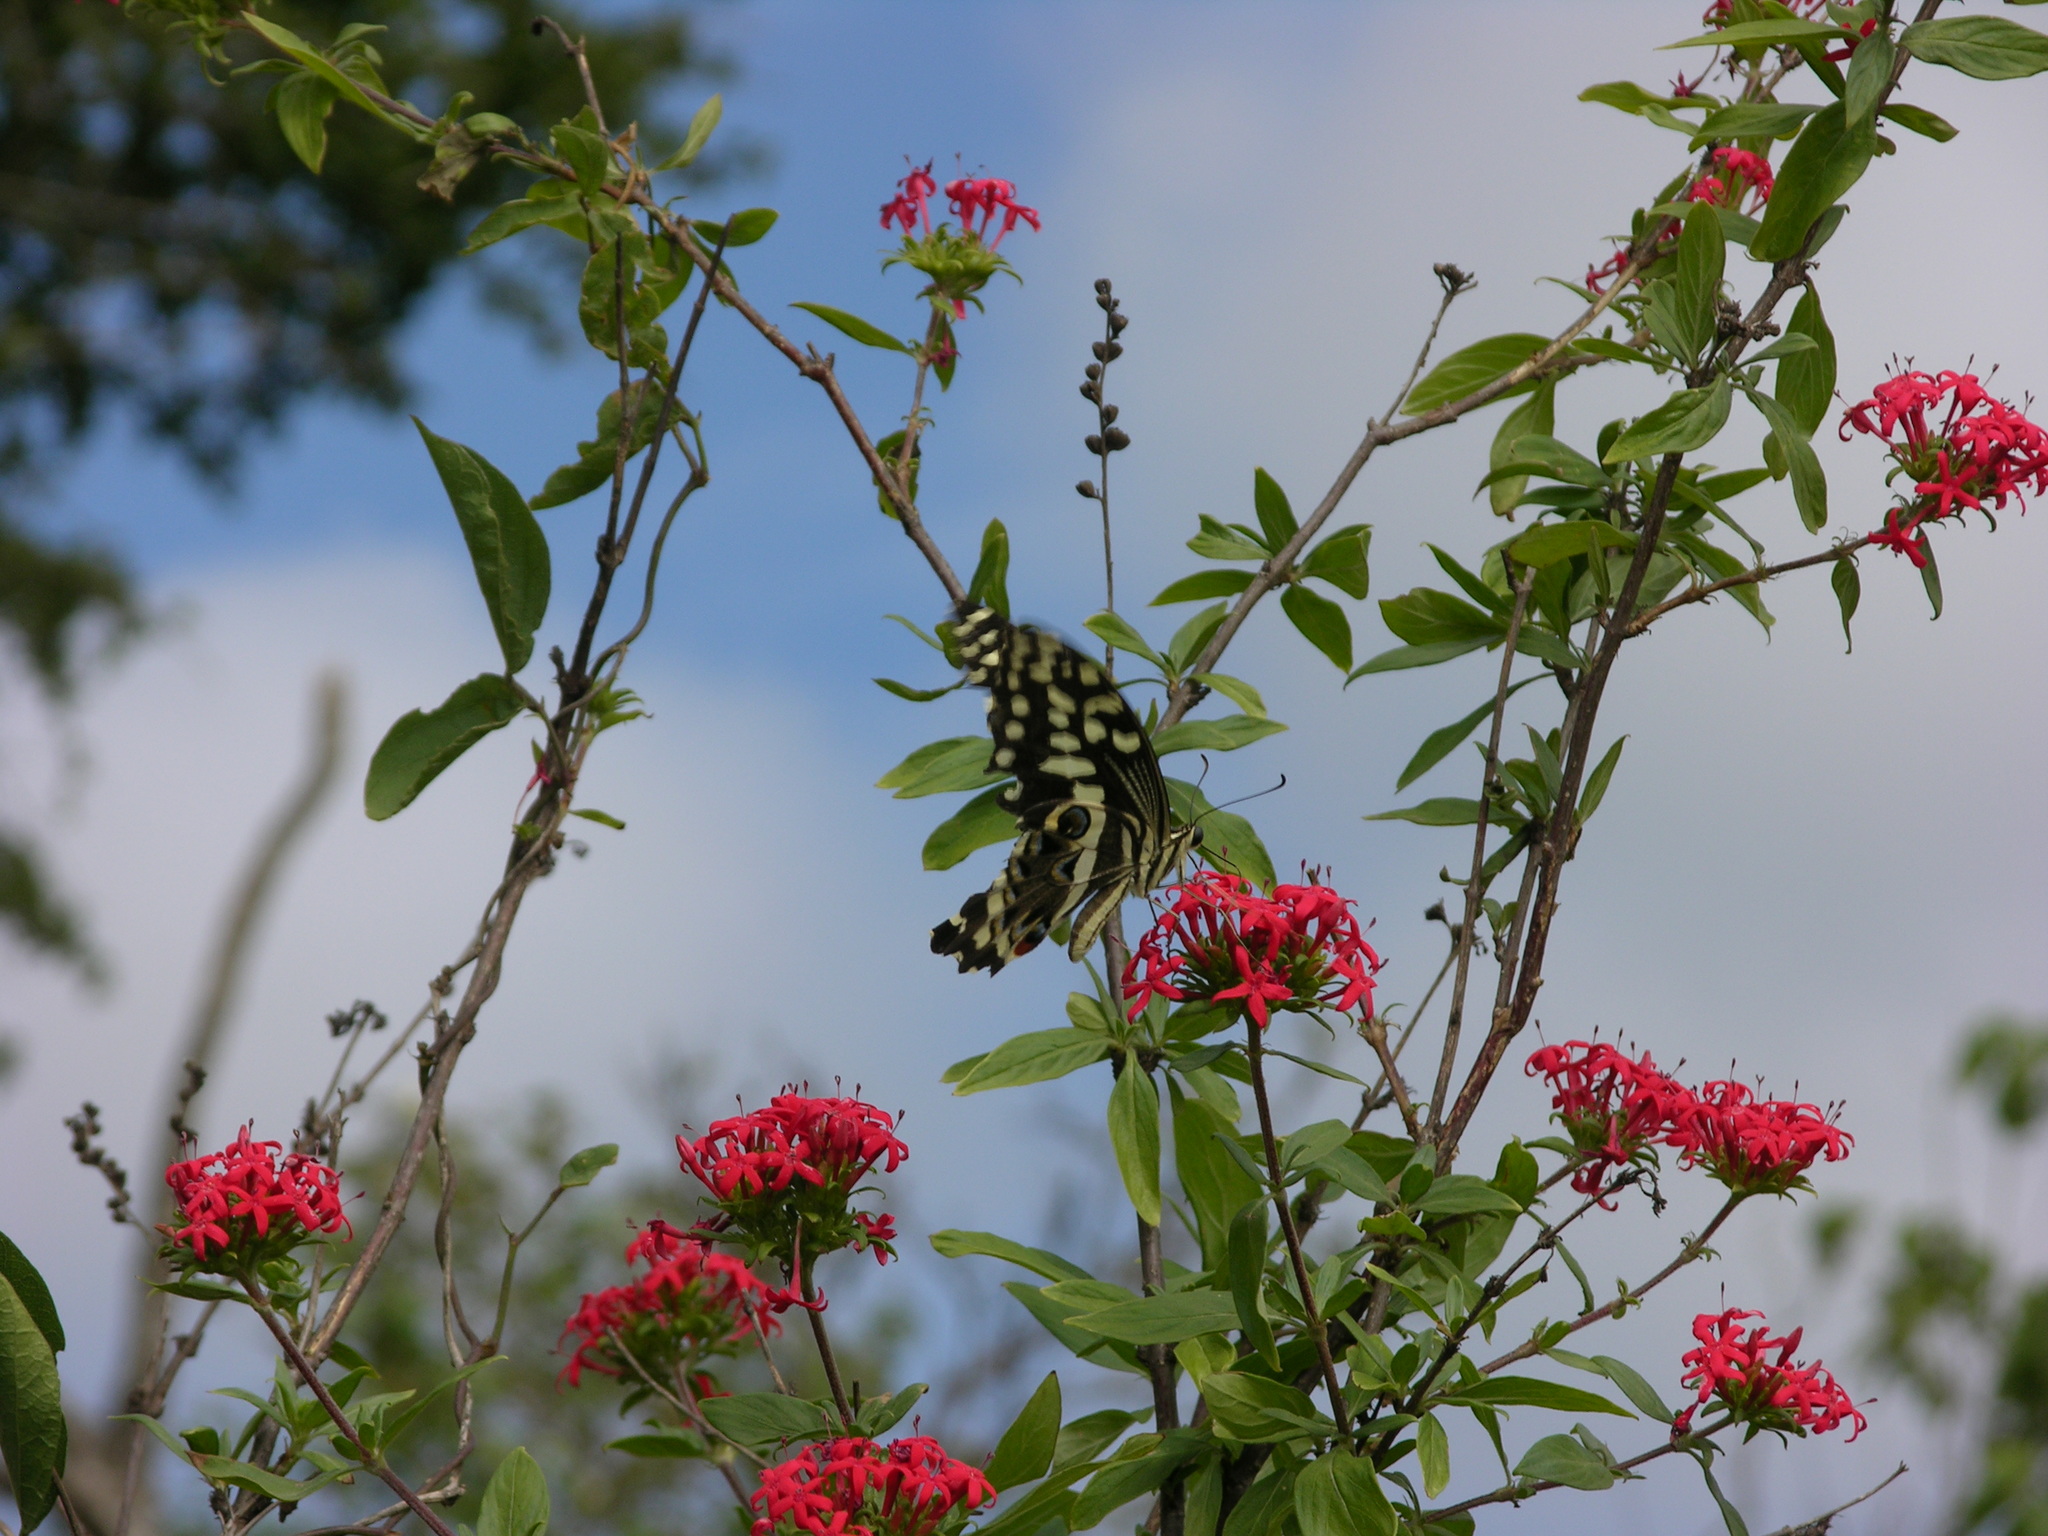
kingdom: Animalia
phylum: Arthropoda
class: Insecta
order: Lepidoptera
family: Papilionidae
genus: Papilio
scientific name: Papilio demodocus
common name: Christmas butterfly
